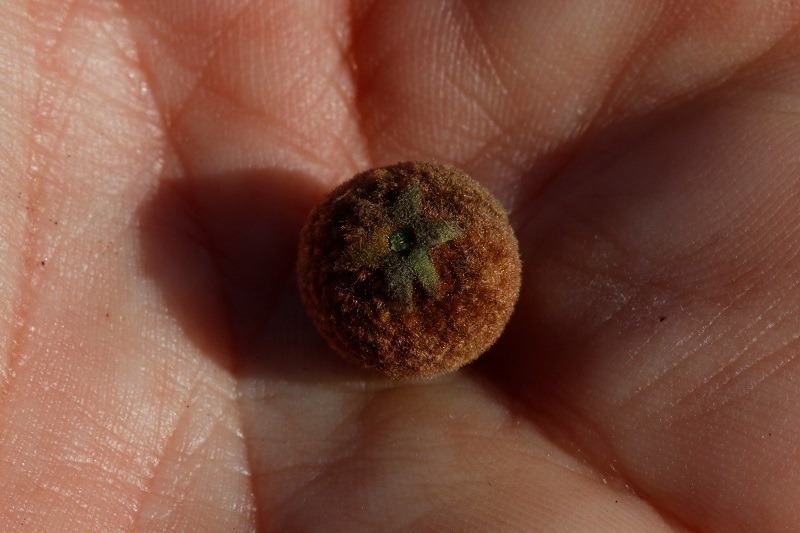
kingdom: Plantae
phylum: Tracheophyta
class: Magnoliopsida
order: Ericales
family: Ebenaceae
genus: Euclea
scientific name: Euclea polyandra
